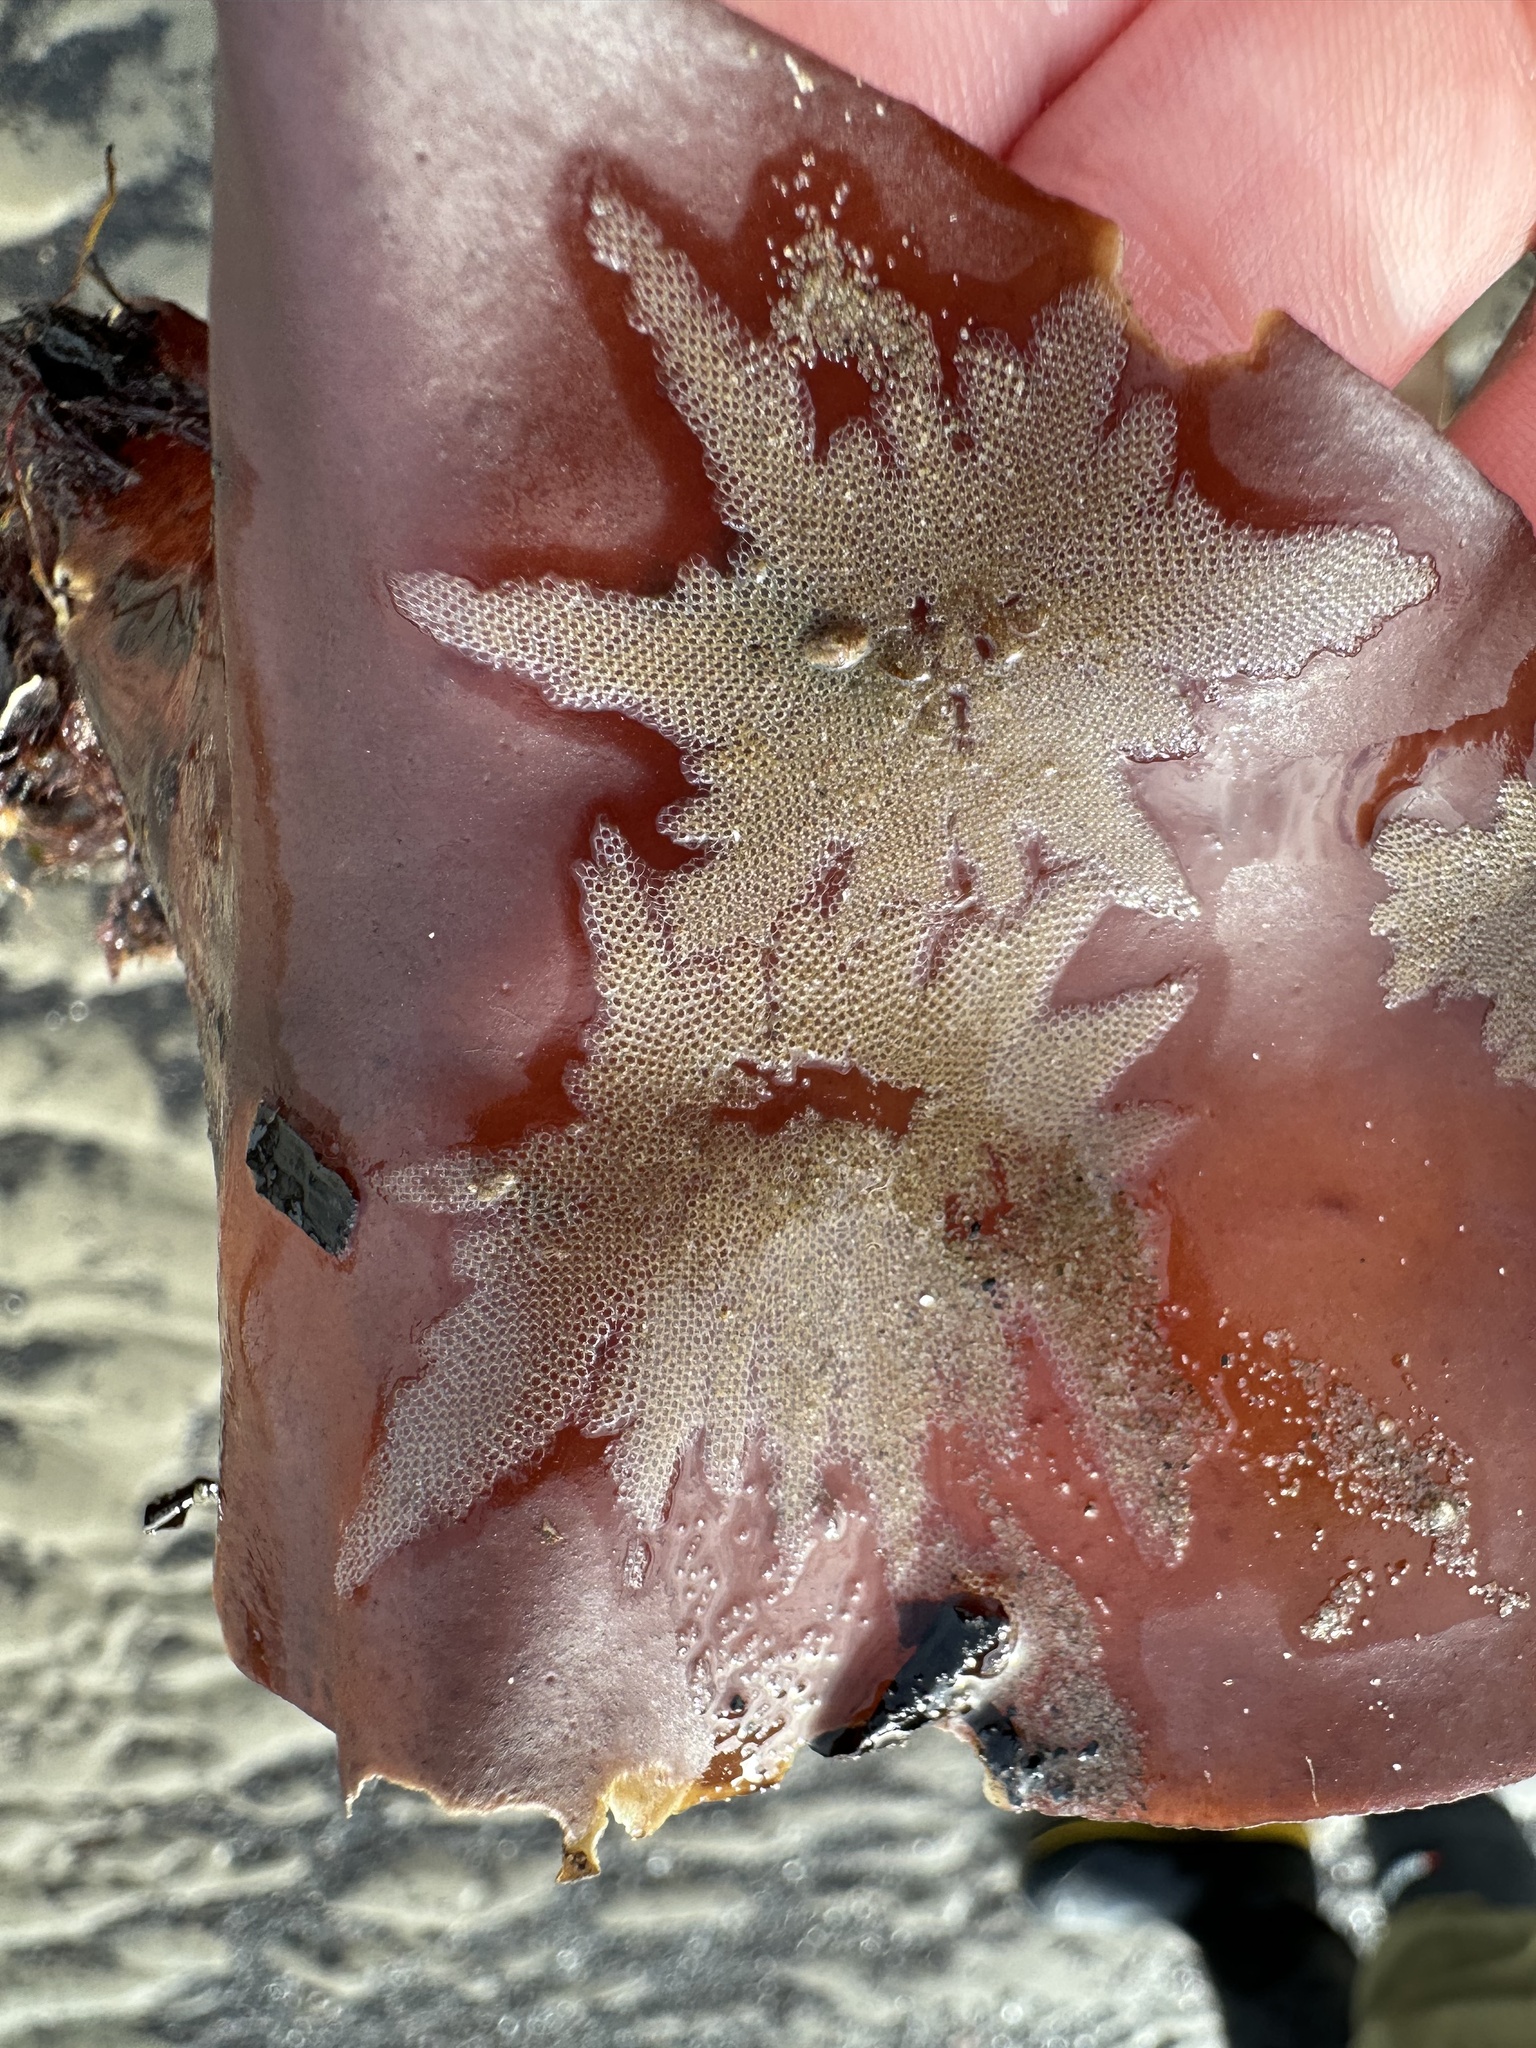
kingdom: Animalia
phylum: Bryozoa
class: Gymnolaemata
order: Cheilostomatida
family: Electridae
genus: Electra
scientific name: Electra pilosa
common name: Hairy sea-mat
